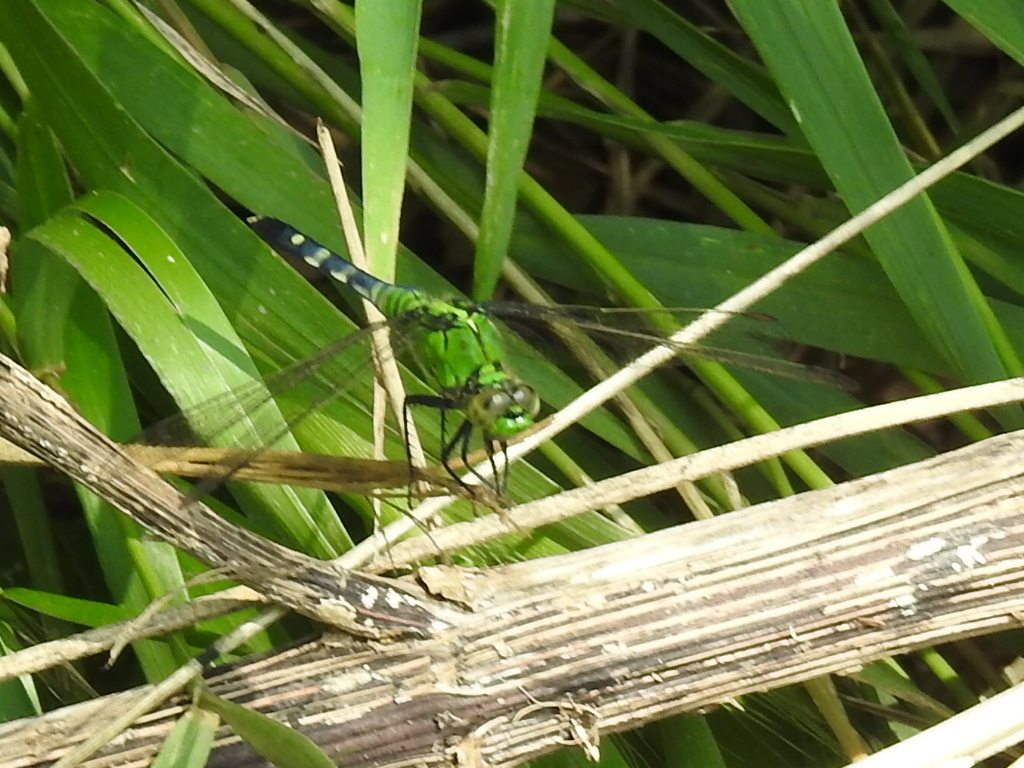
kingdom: Animalia
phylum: Arthropoda
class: Insecta
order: Odonata
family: Libellulidae
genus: Erythemis
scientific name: Erythemis simplicicollis
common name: Eastern pondhawk
